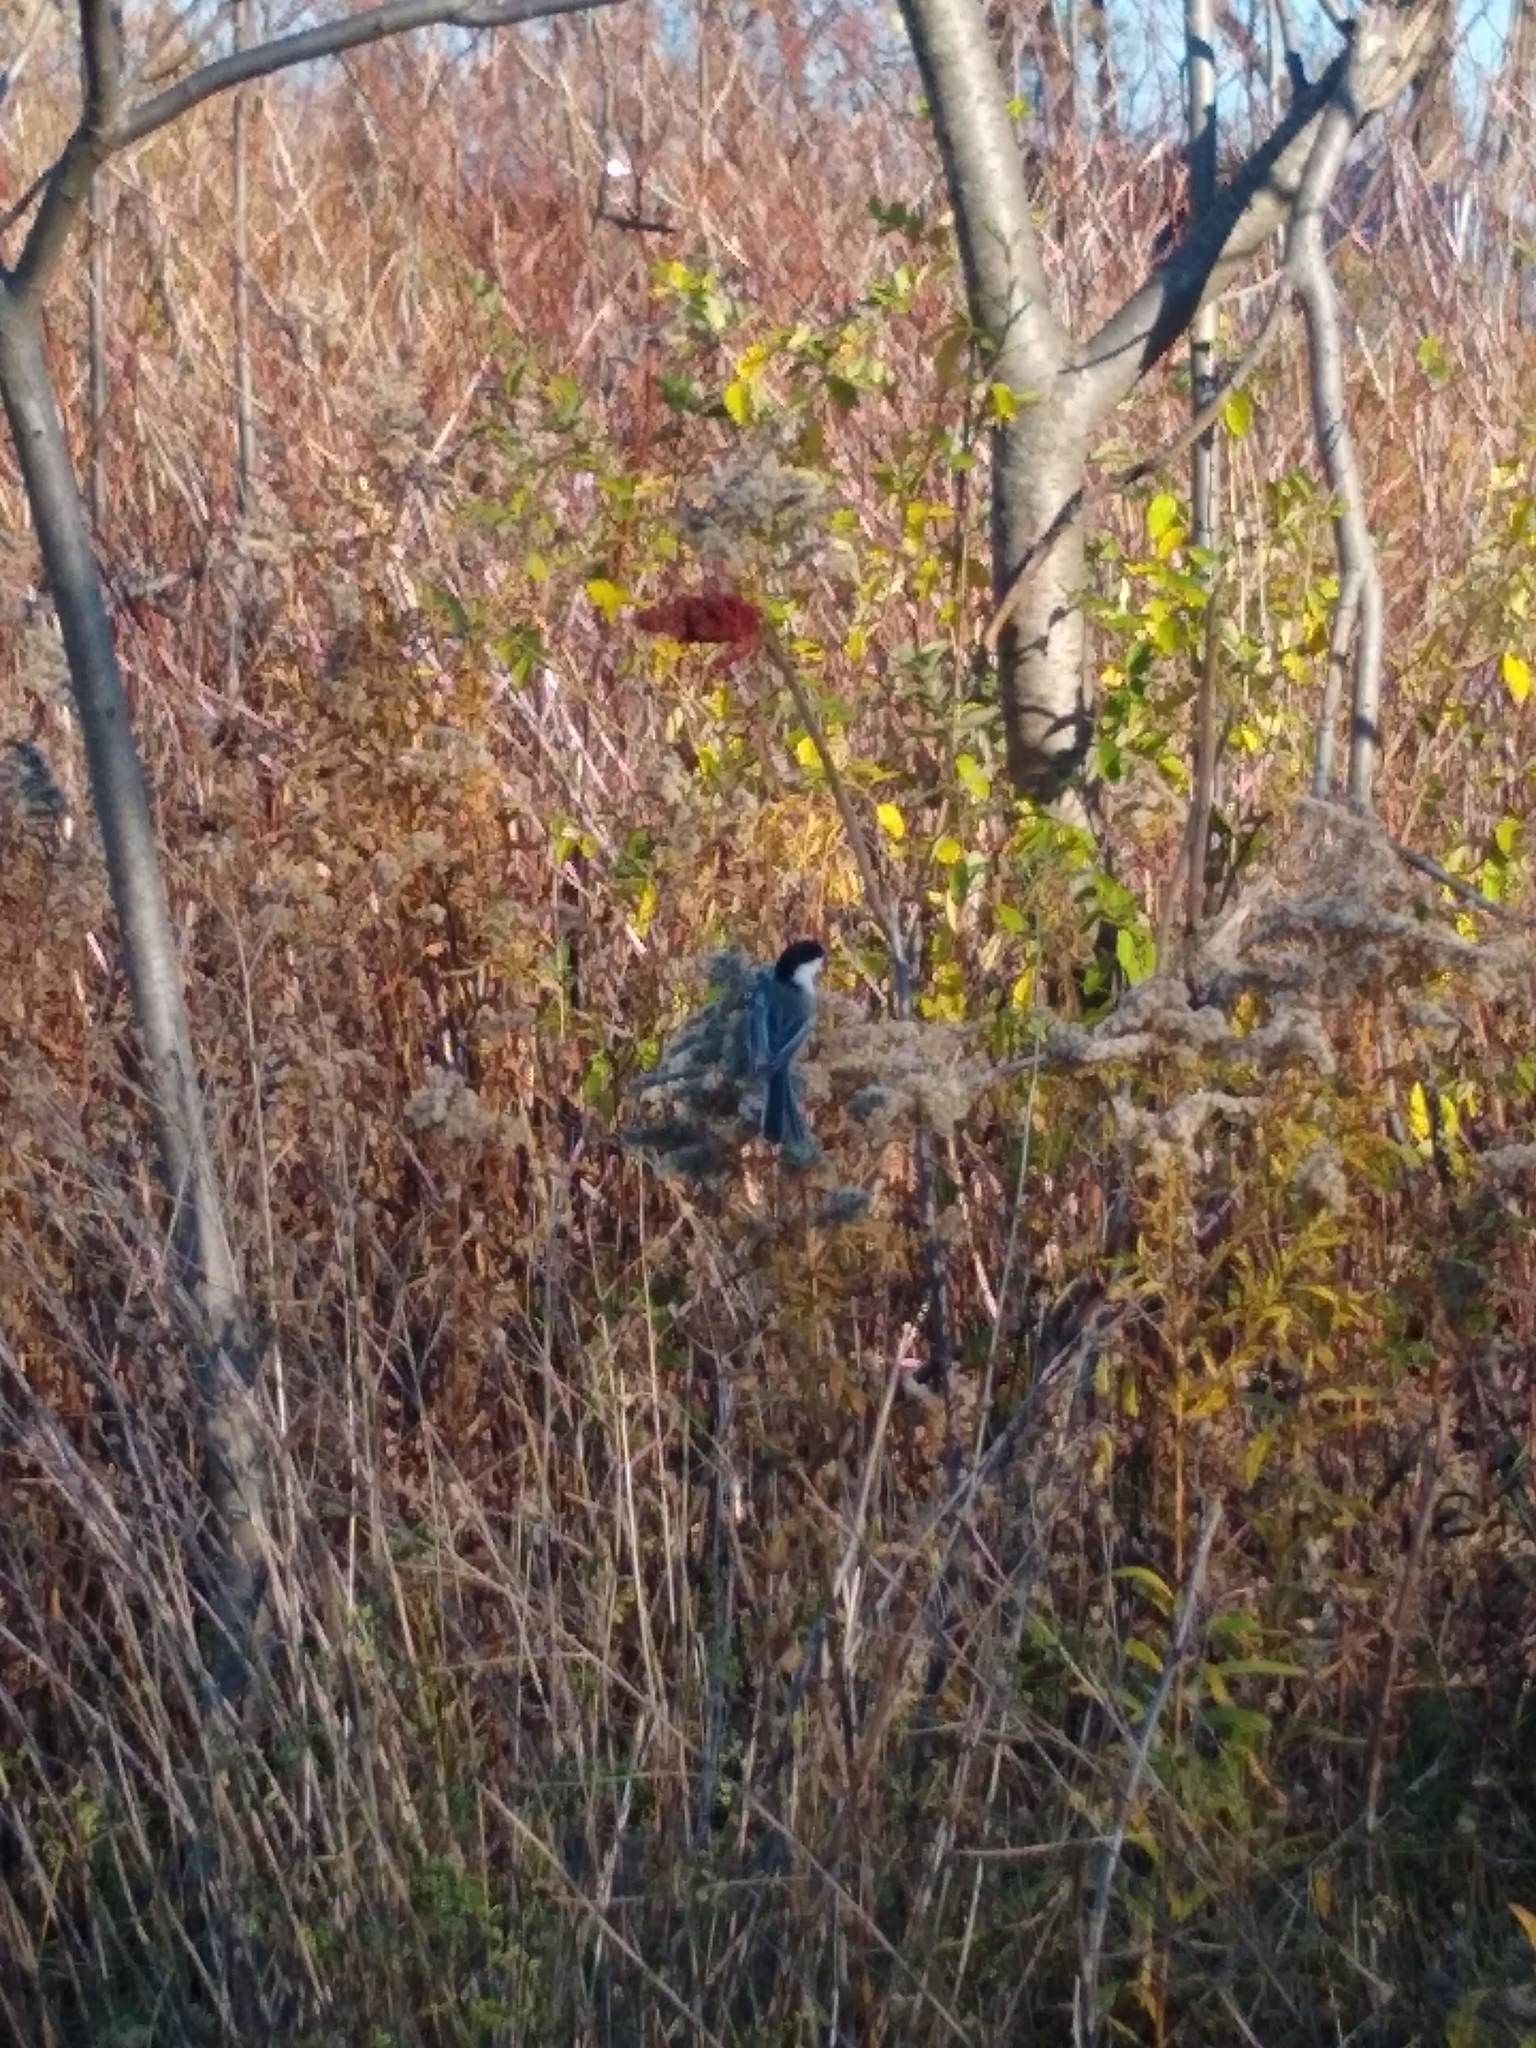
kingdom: Animalia
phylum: Chordata
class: Aves
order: Passeriformes
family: Paridae
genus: Poecile
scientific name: Poecile atricapillus
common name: Black-capped chickadee
